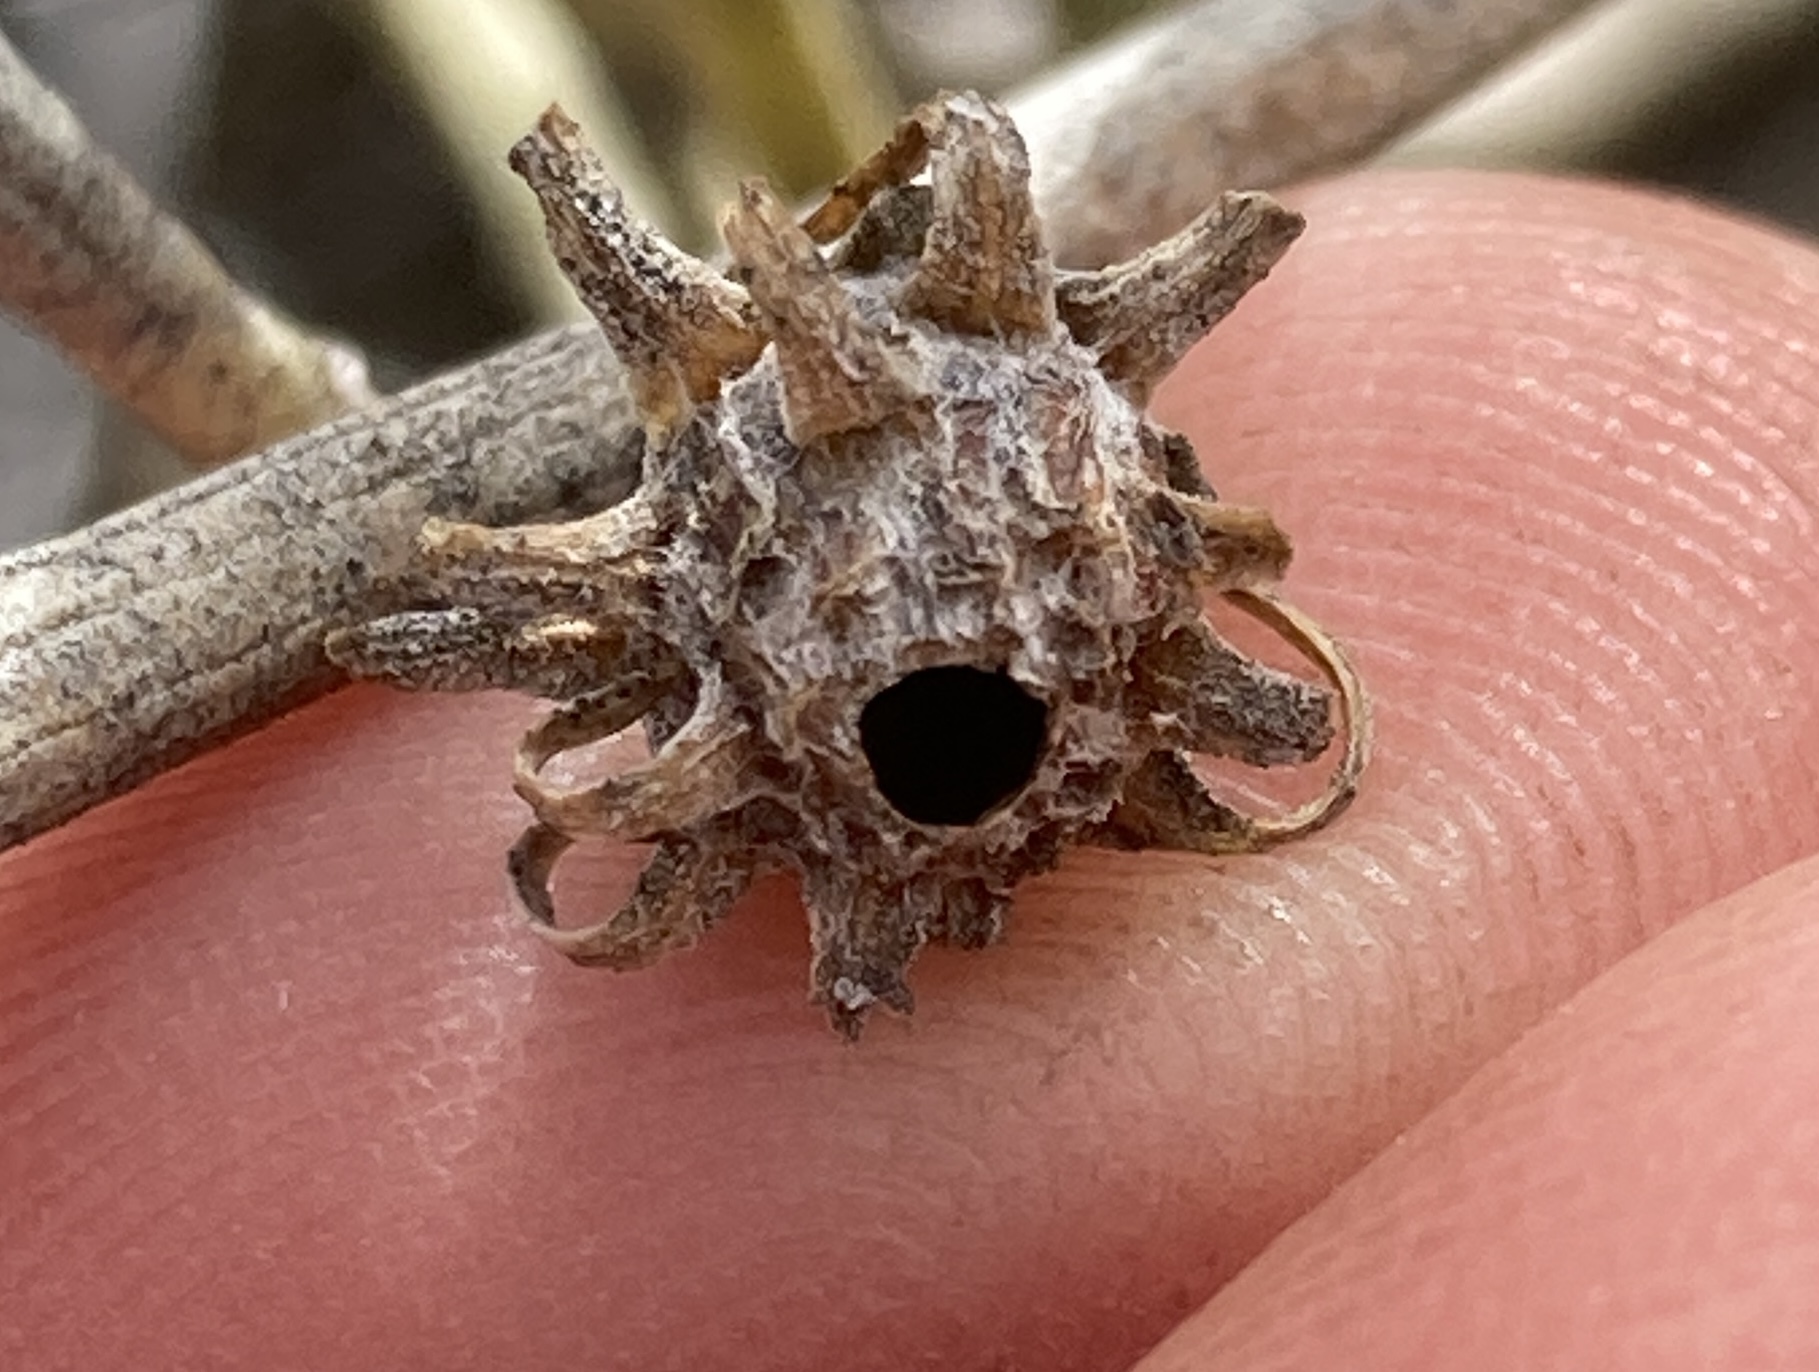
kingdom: Animalia
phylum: Arthropoda
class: Insecta
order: Diptera
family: Cecidomyiidae
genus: Rhopalomyia
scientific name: Rhopalomyia utahensis
